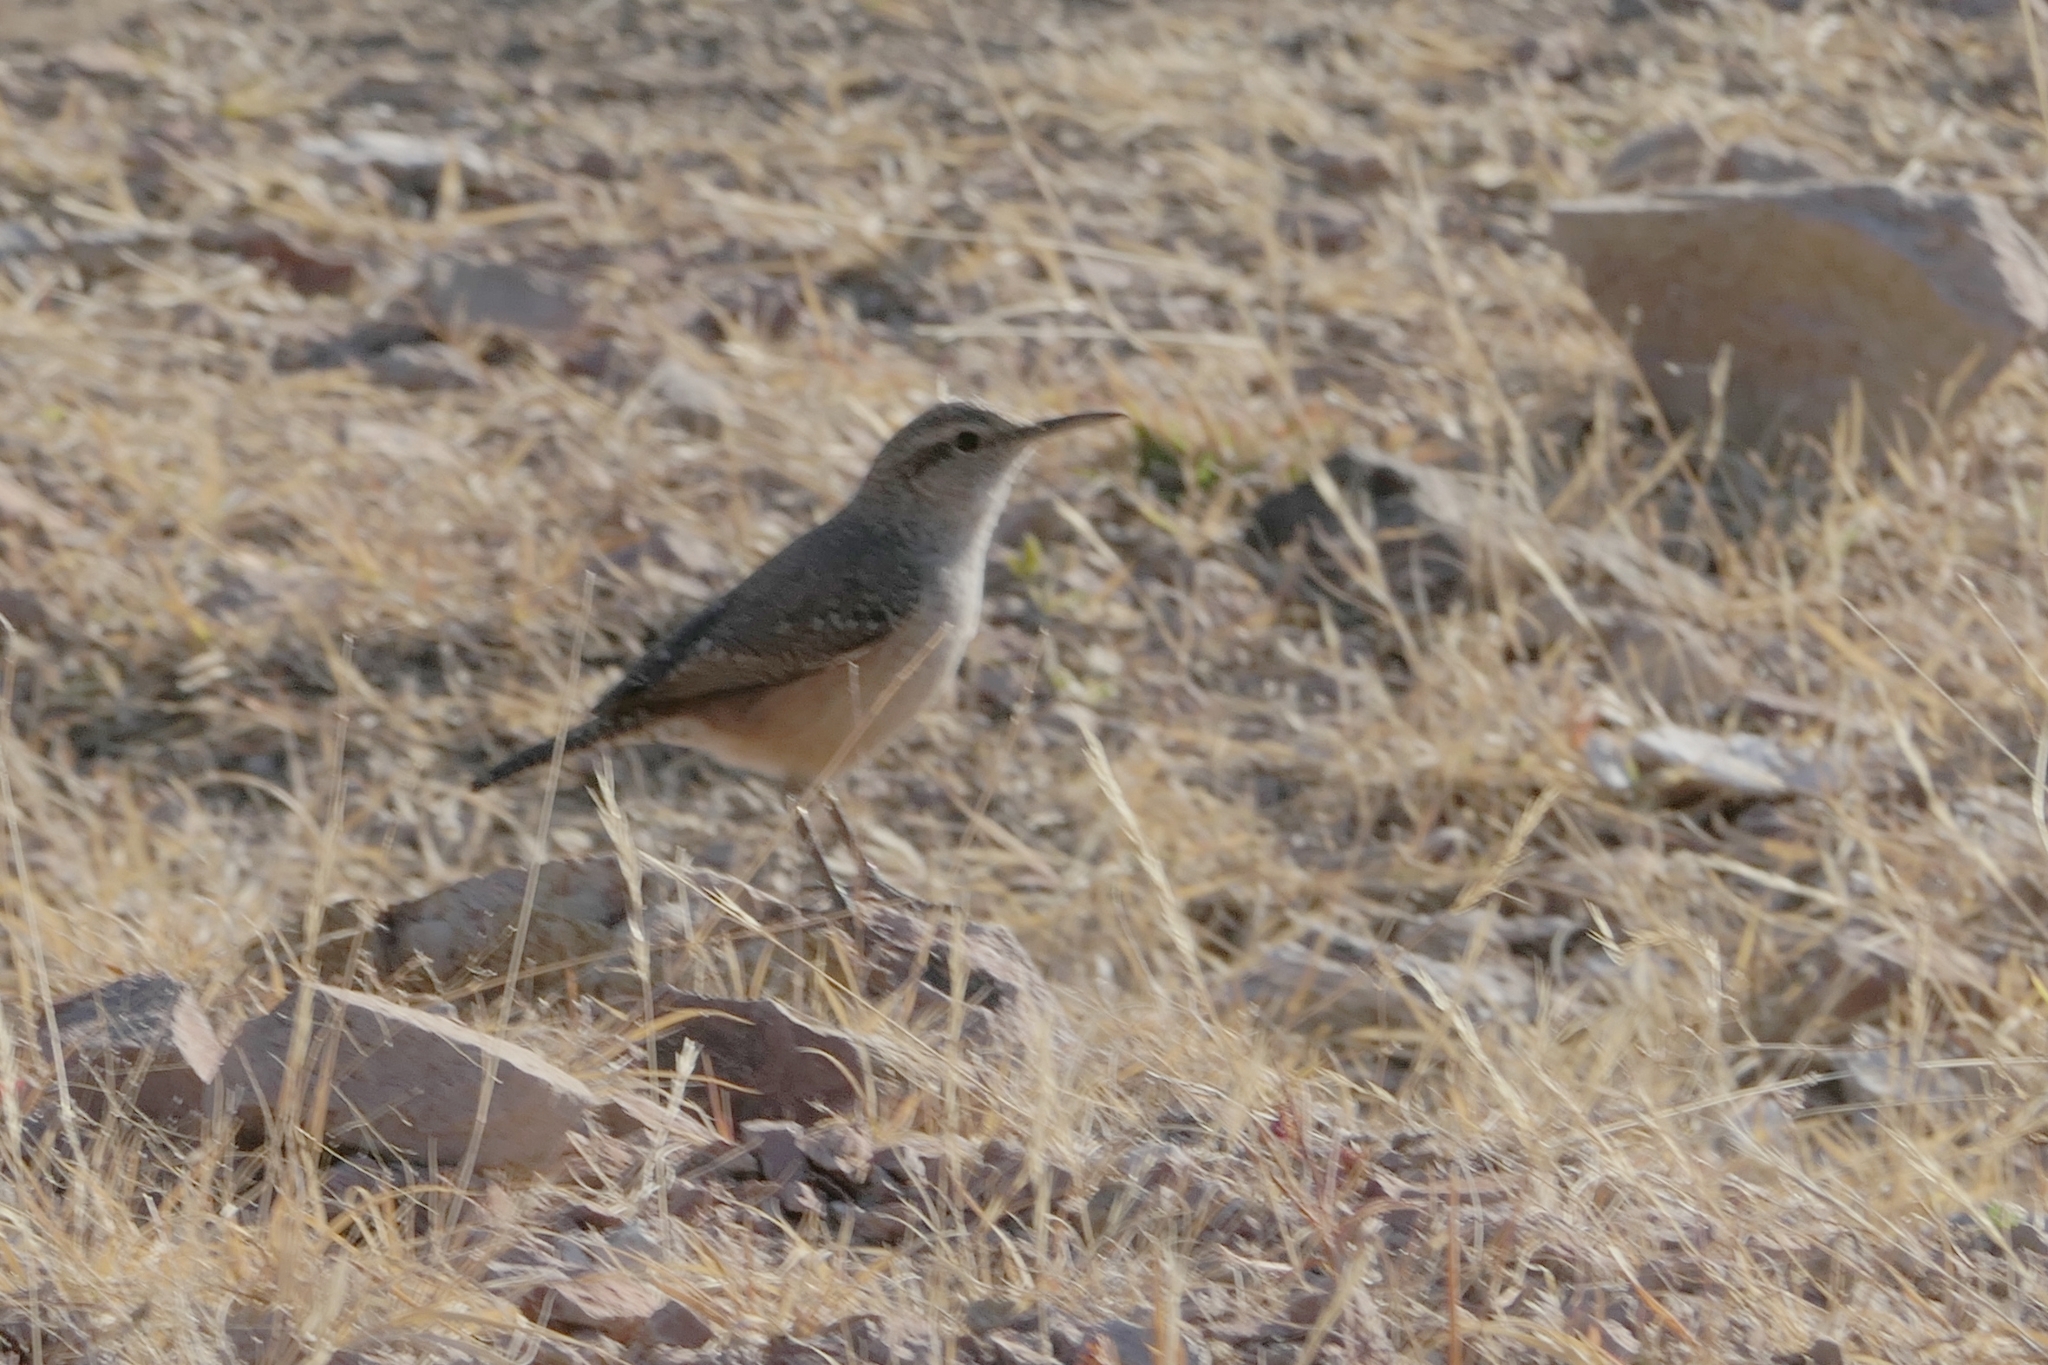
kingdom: Animalia
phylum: Chordata
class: Aves
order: Passeriformes
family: Troglodytidae
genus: Salpinctes
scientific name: Salpinctes obsoletus
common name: Rock wren
